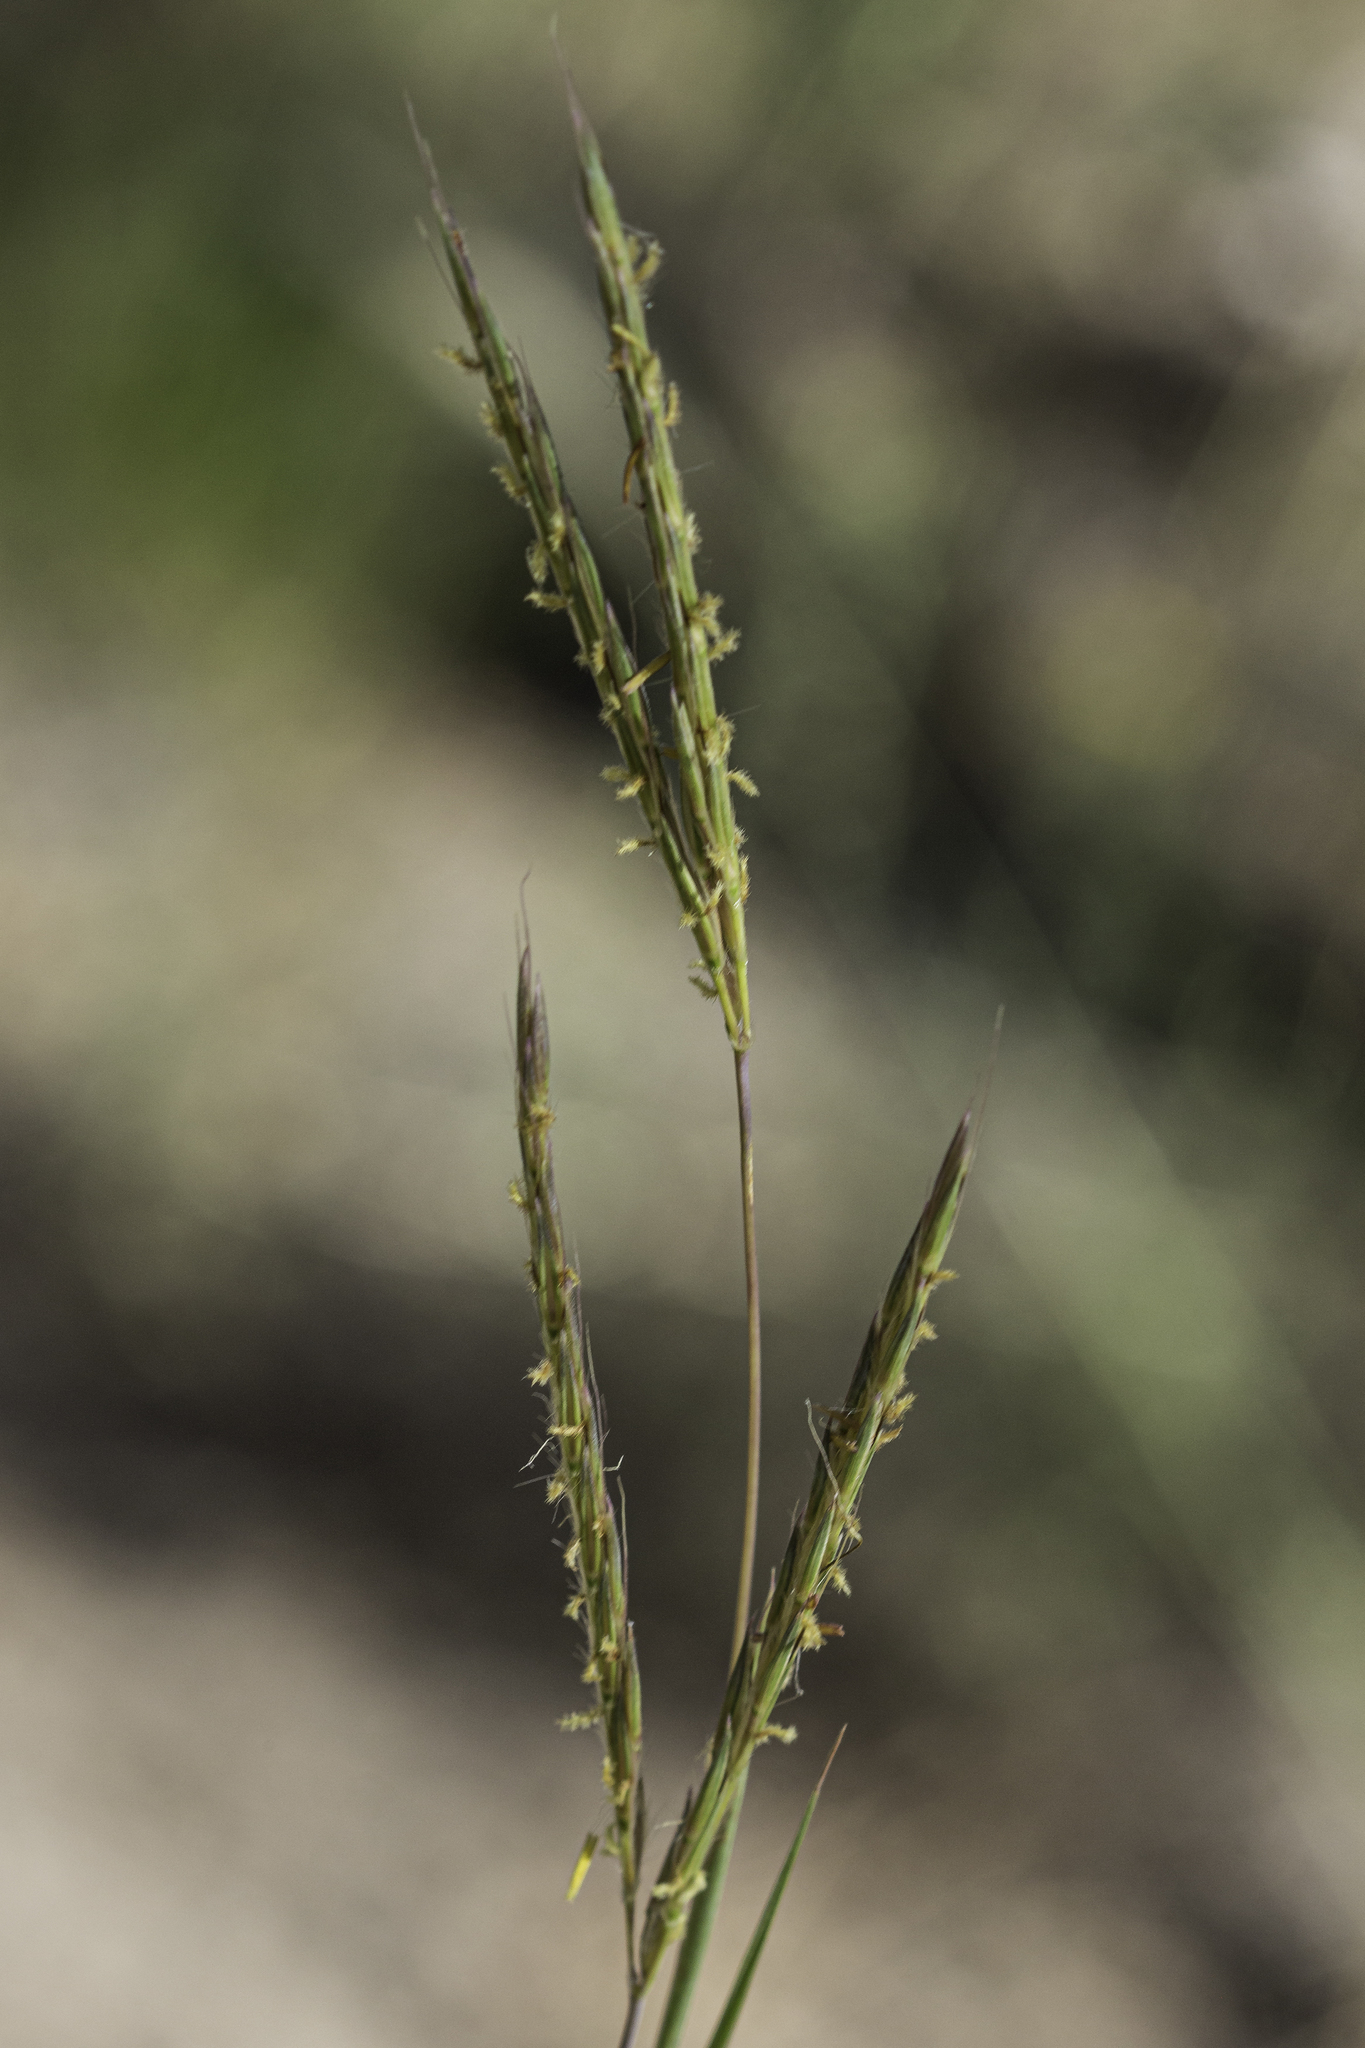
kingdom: Plantae
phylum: Tracheophyta
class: Liliopsida
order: Poales
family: Poaceae
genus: Andropogon
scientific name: Andropogon gerardi
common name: Big bluestem
